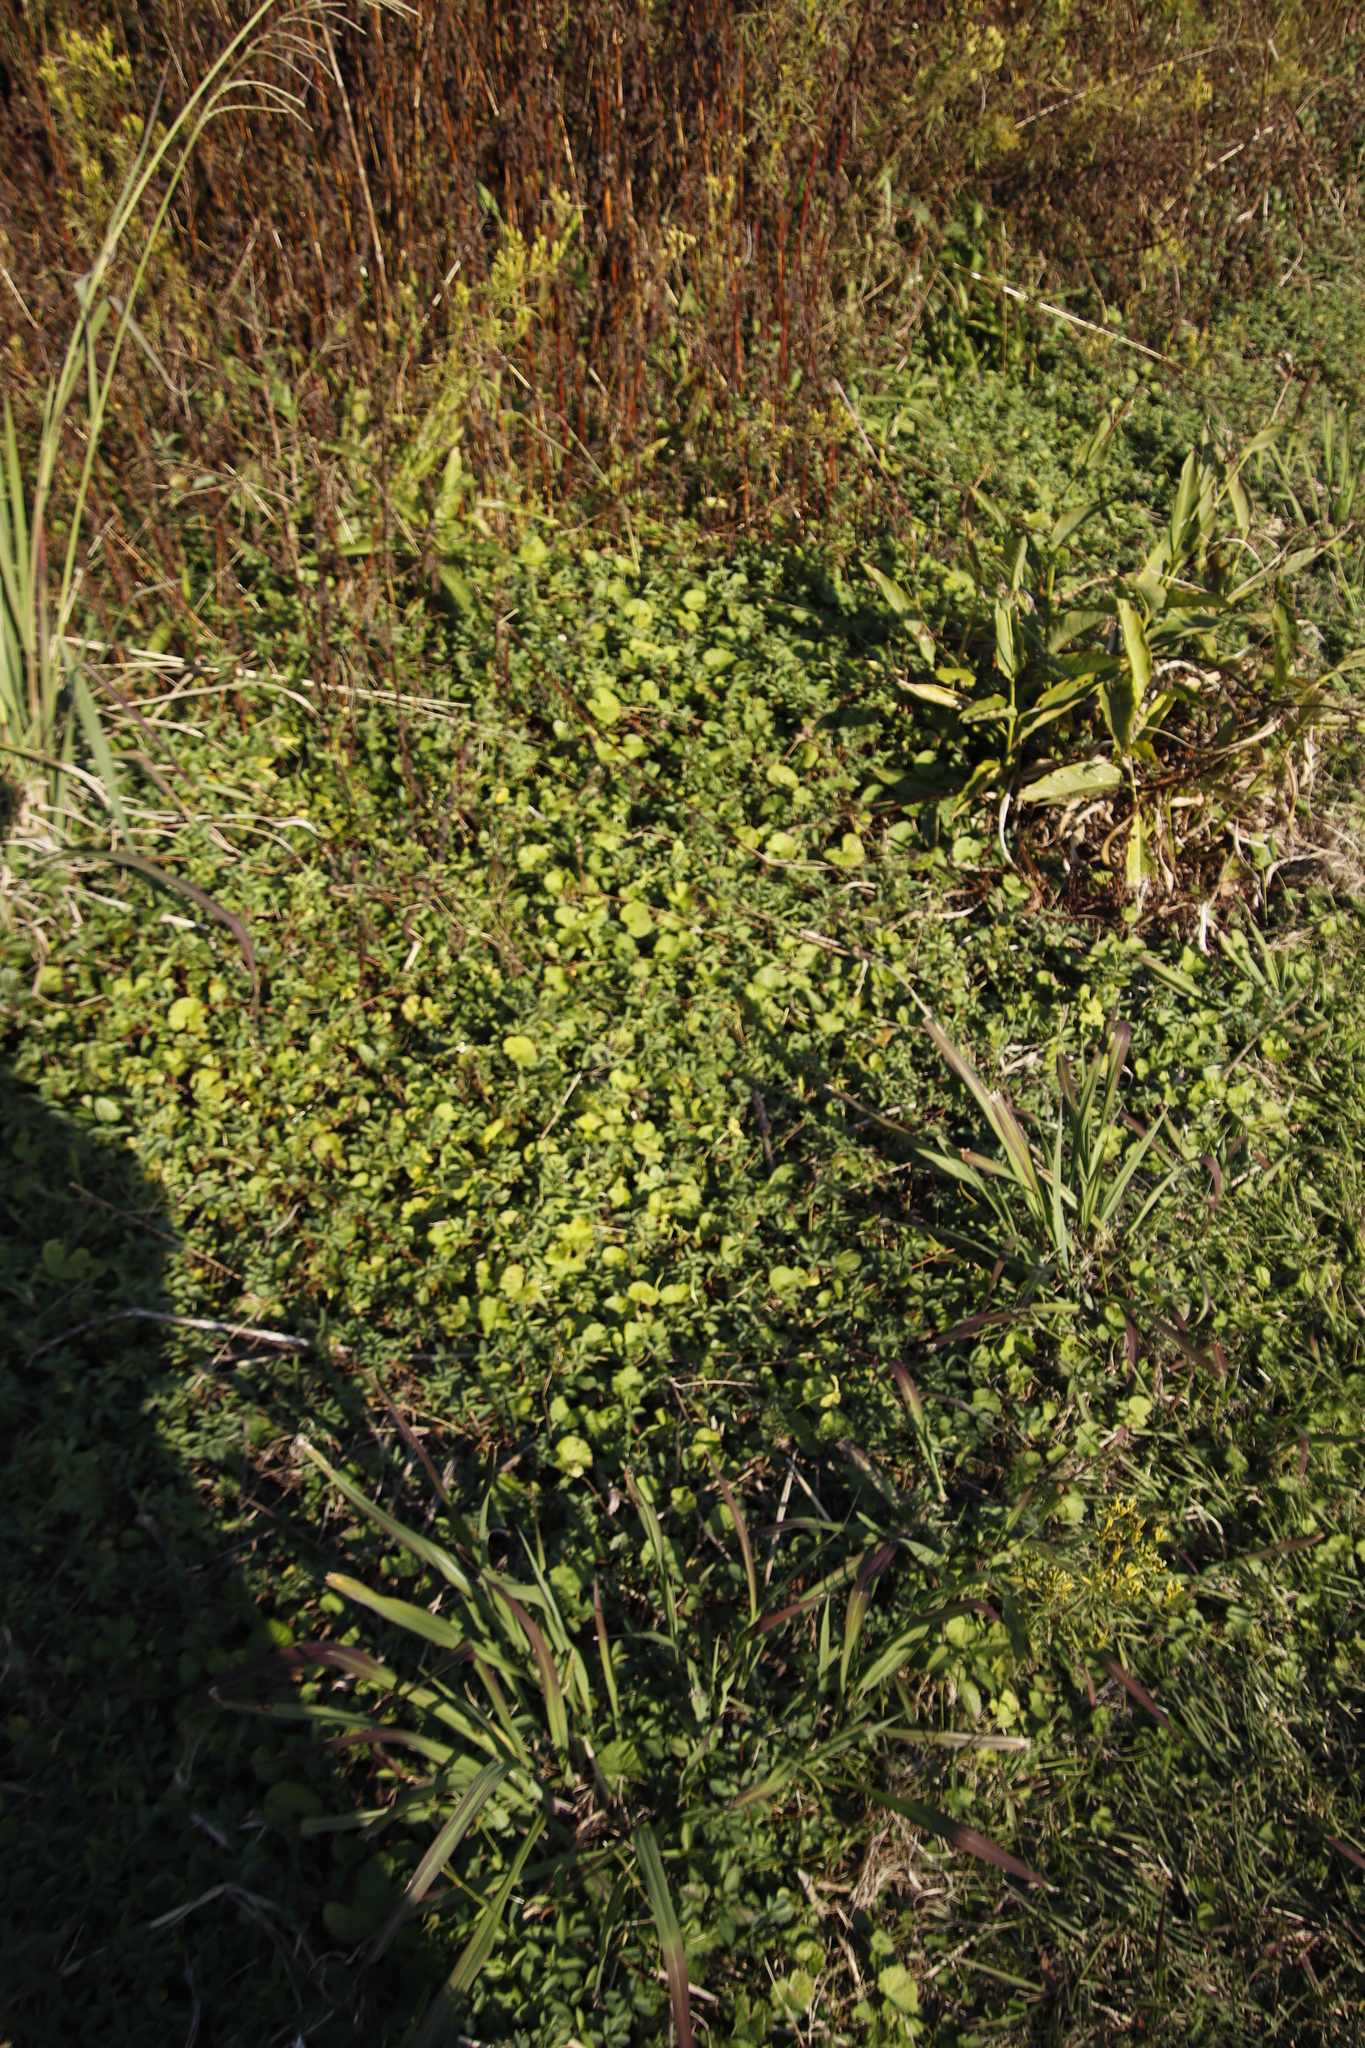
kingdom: Plantae
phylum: Tracheophyta
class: Magnoliopsida
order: Apiales
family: Apiaceae
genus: Centella
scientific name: Centella asiatica
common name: Spadeleaf
